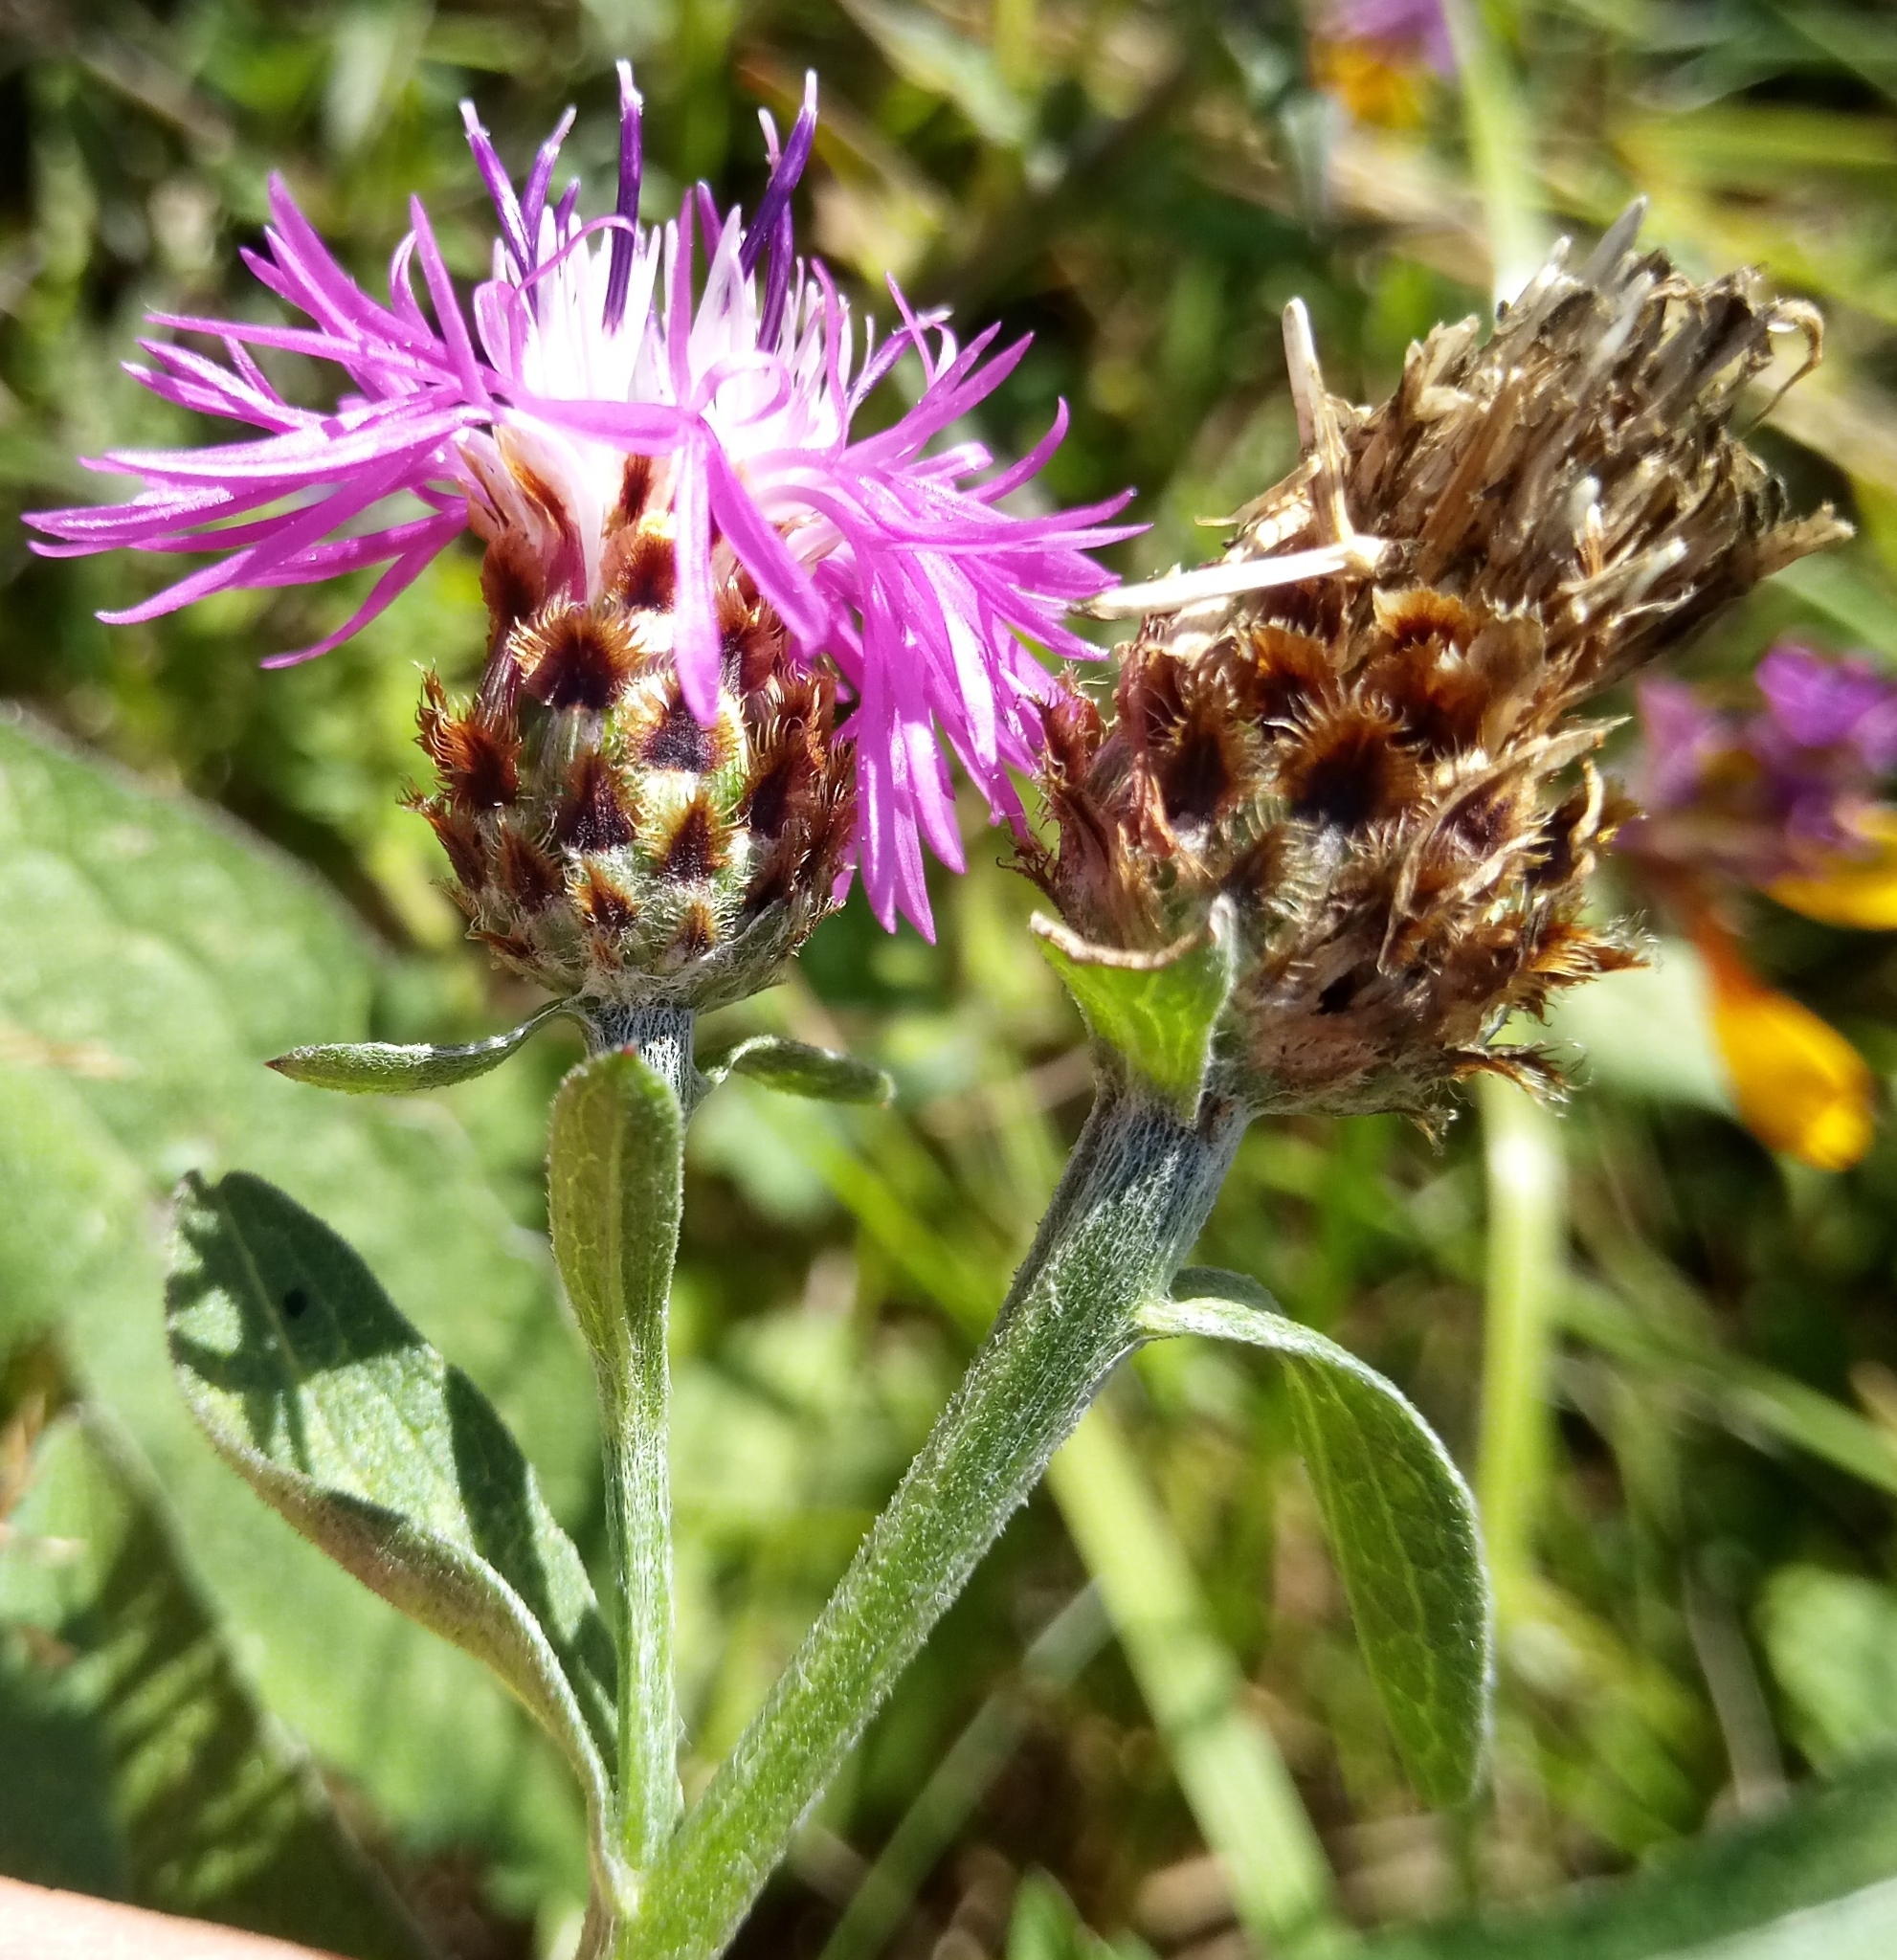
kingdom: Plantae
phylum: Tracheophyta
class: Magnoliopsida
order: Asterales
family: Asteraceae
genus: Centaurea
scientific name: Centaurea fleischeri
